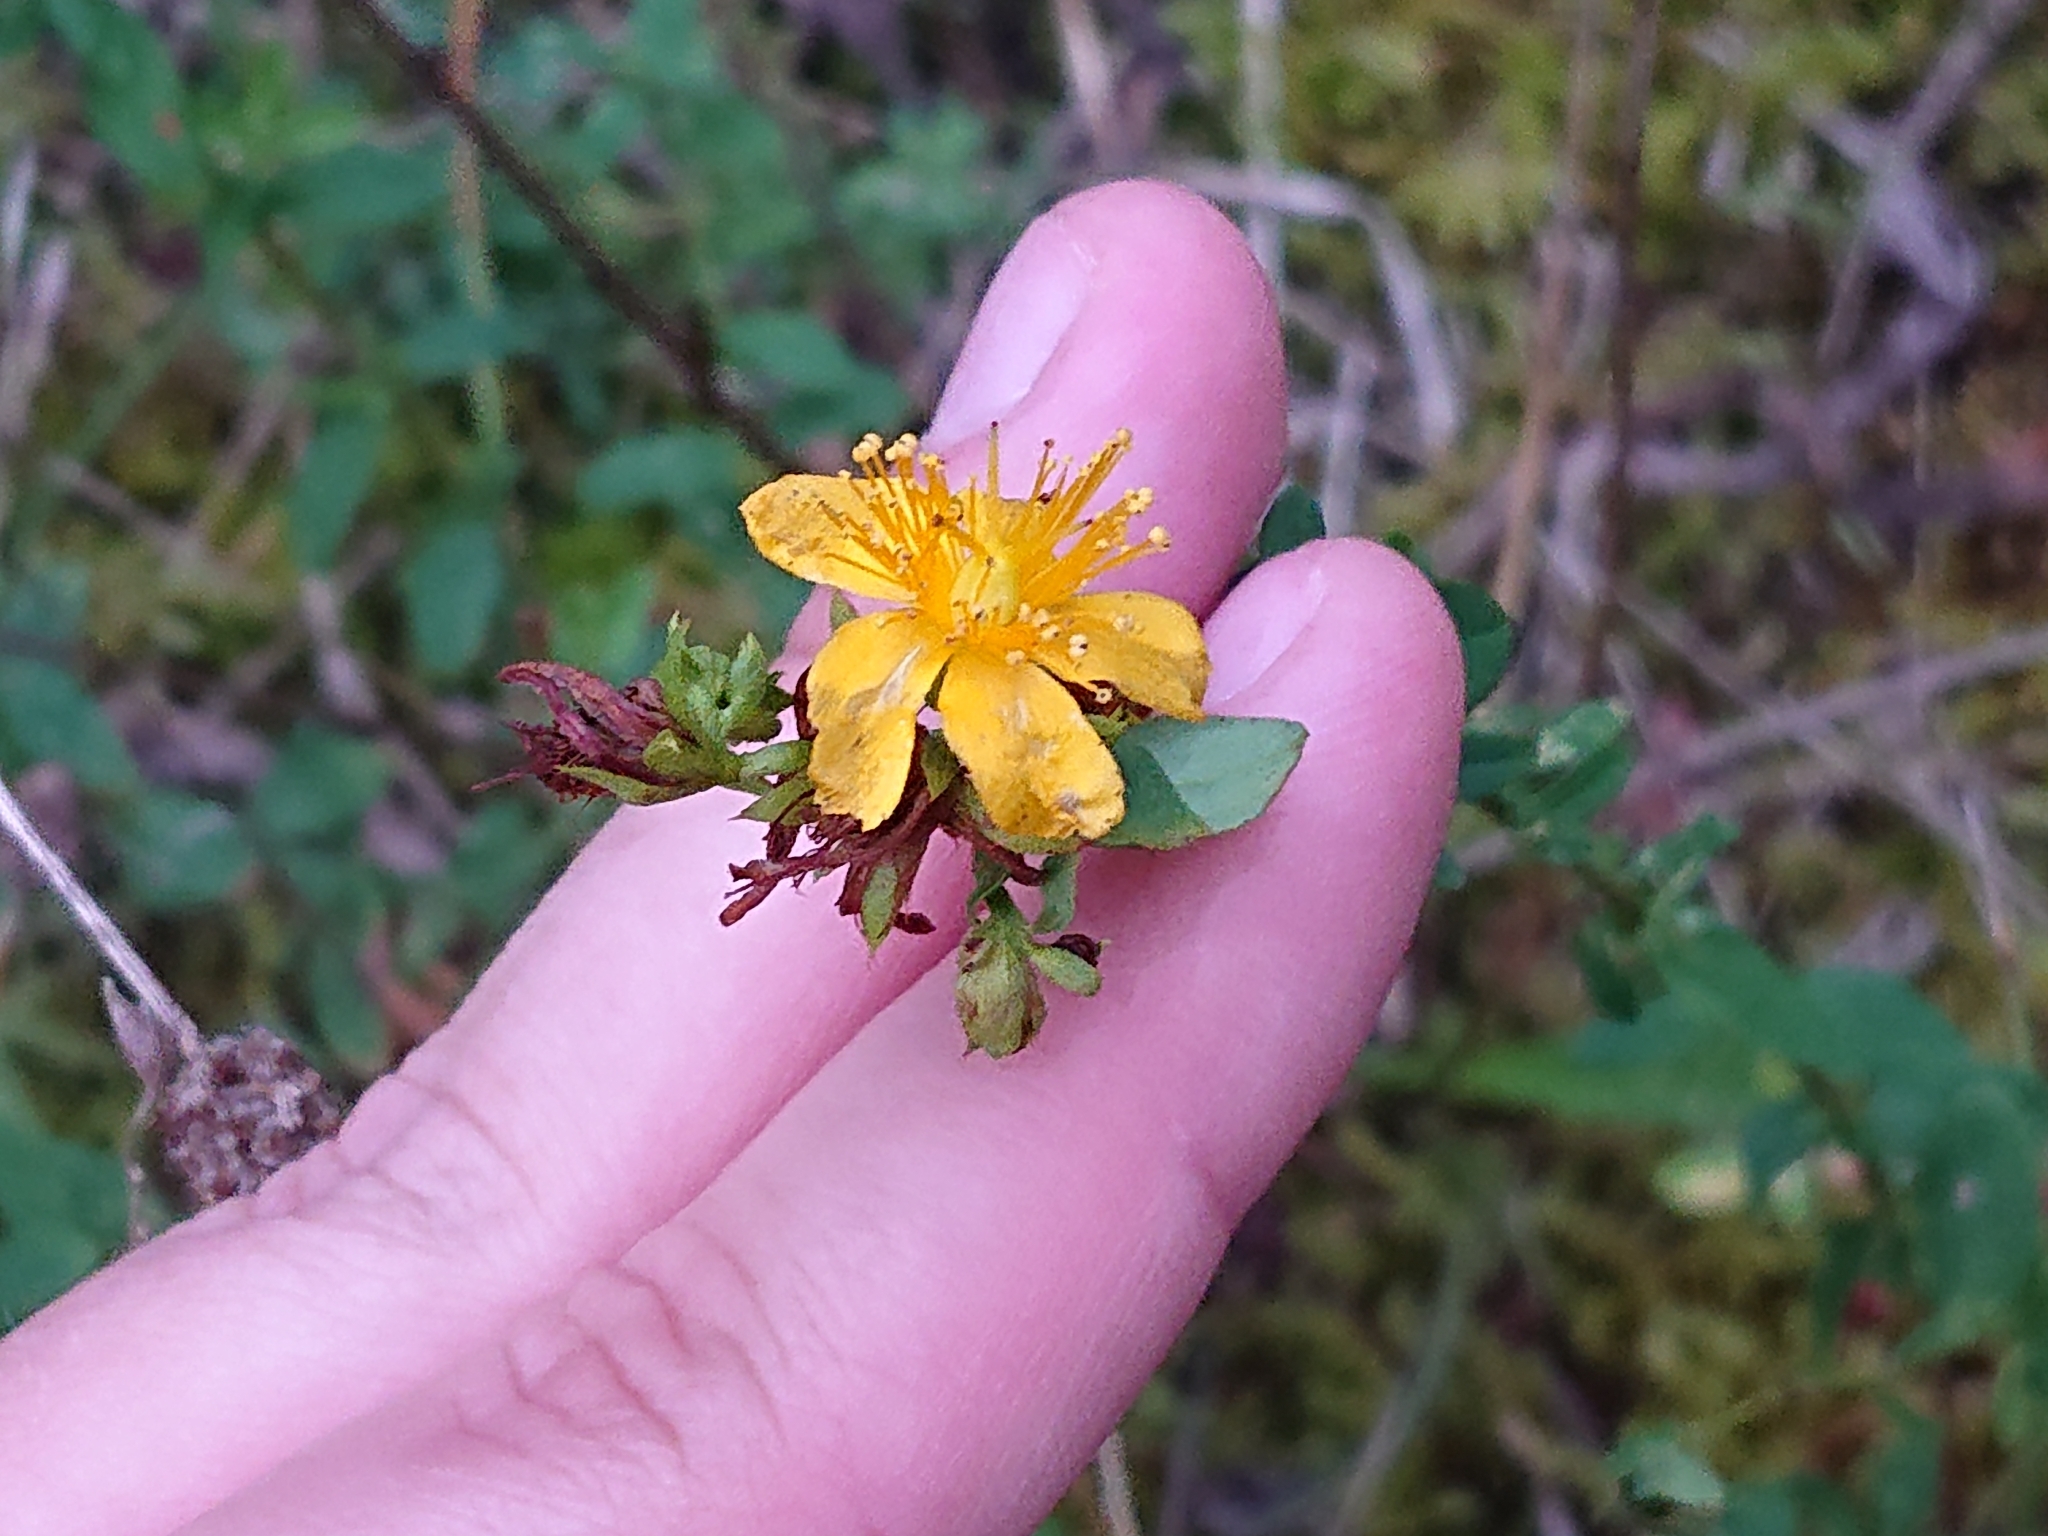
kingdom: Plantae
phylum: Tracheophyta
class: Magnoliopsida
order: Malpighiales
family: Hypericaceae
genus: Hypericum
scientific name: Hypericum perforatum
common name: Common st. johnswort
